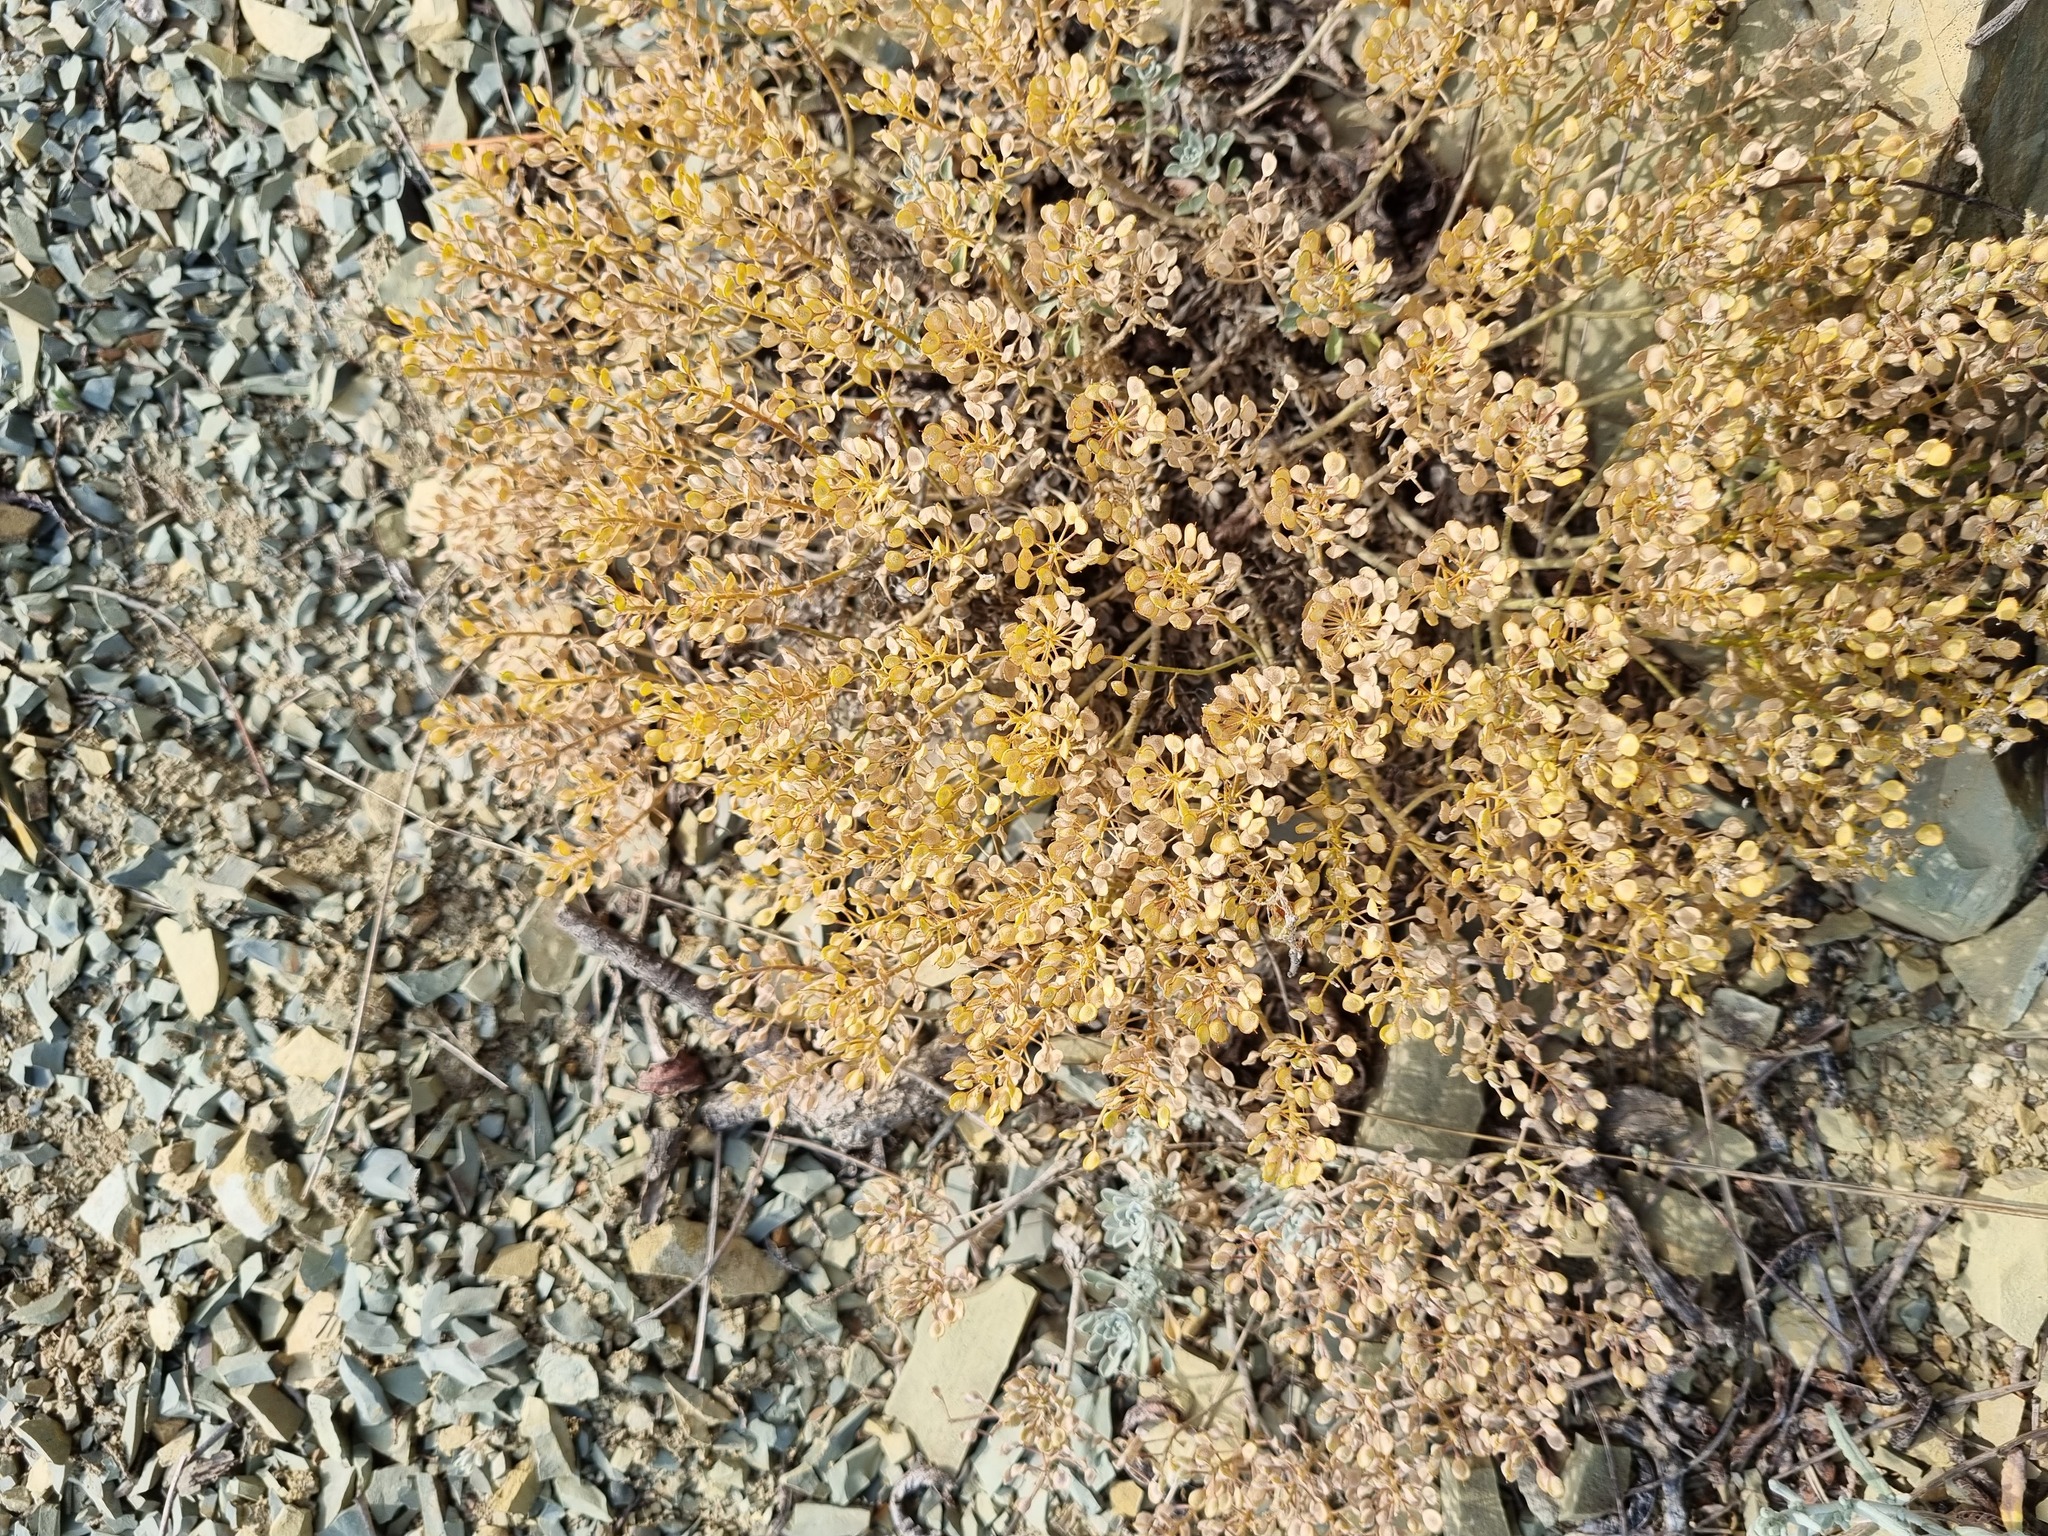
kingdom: Plantae
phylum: Tracheophyta
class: Magnoliopsida
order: Brassicales
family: Brassicaceae
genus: Odontarrhena
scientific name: Odontarrhena obtusifolia
